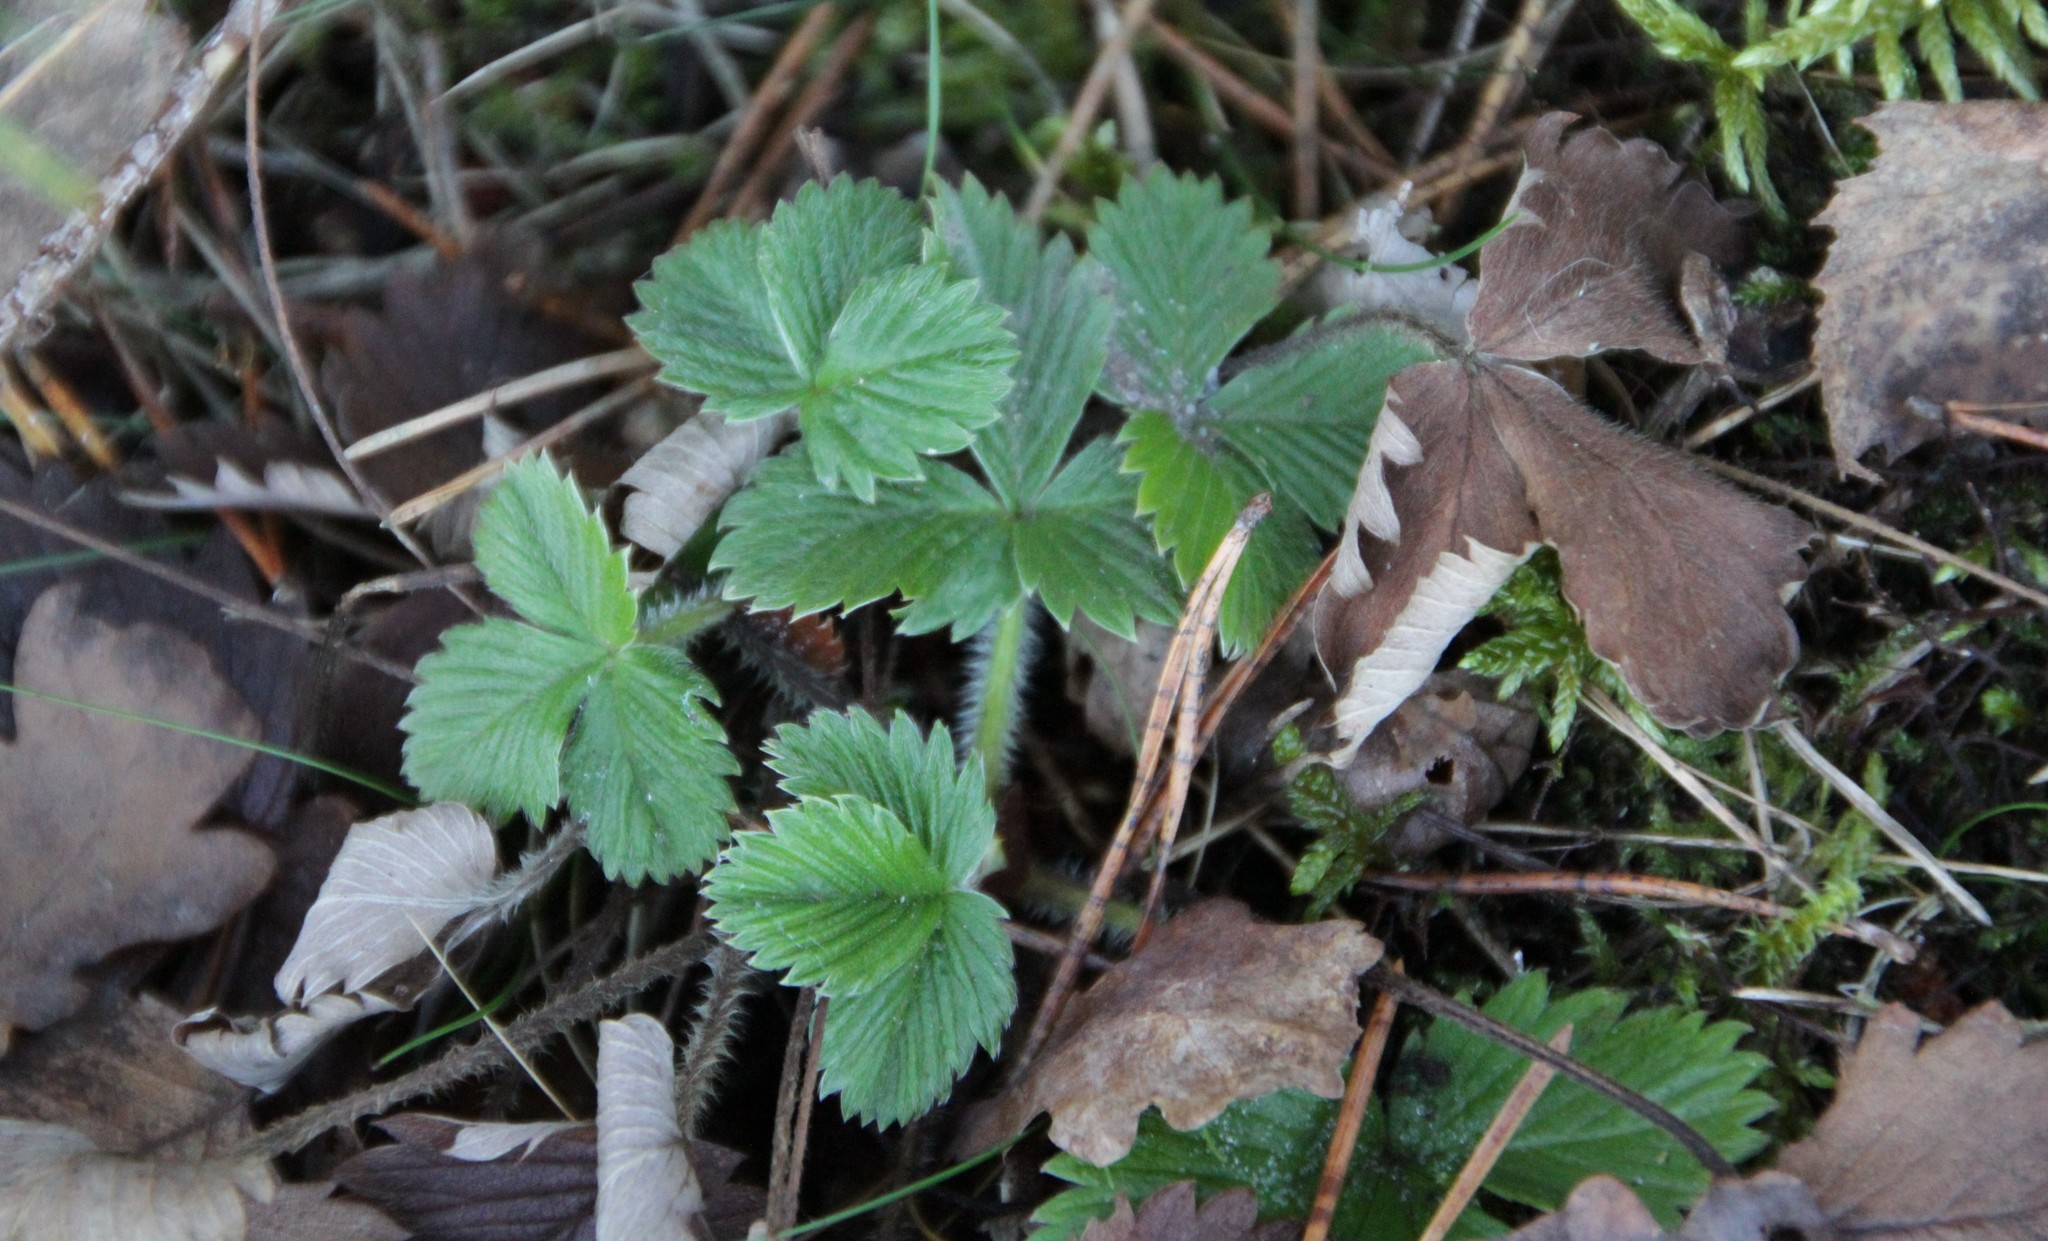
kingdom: Plantae
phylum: Tracheophyta
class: Magnoliopsida
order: Rosales
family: Rosaceae
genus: Fragaria
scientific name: Fragaria vesca
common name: Wild strawberry
